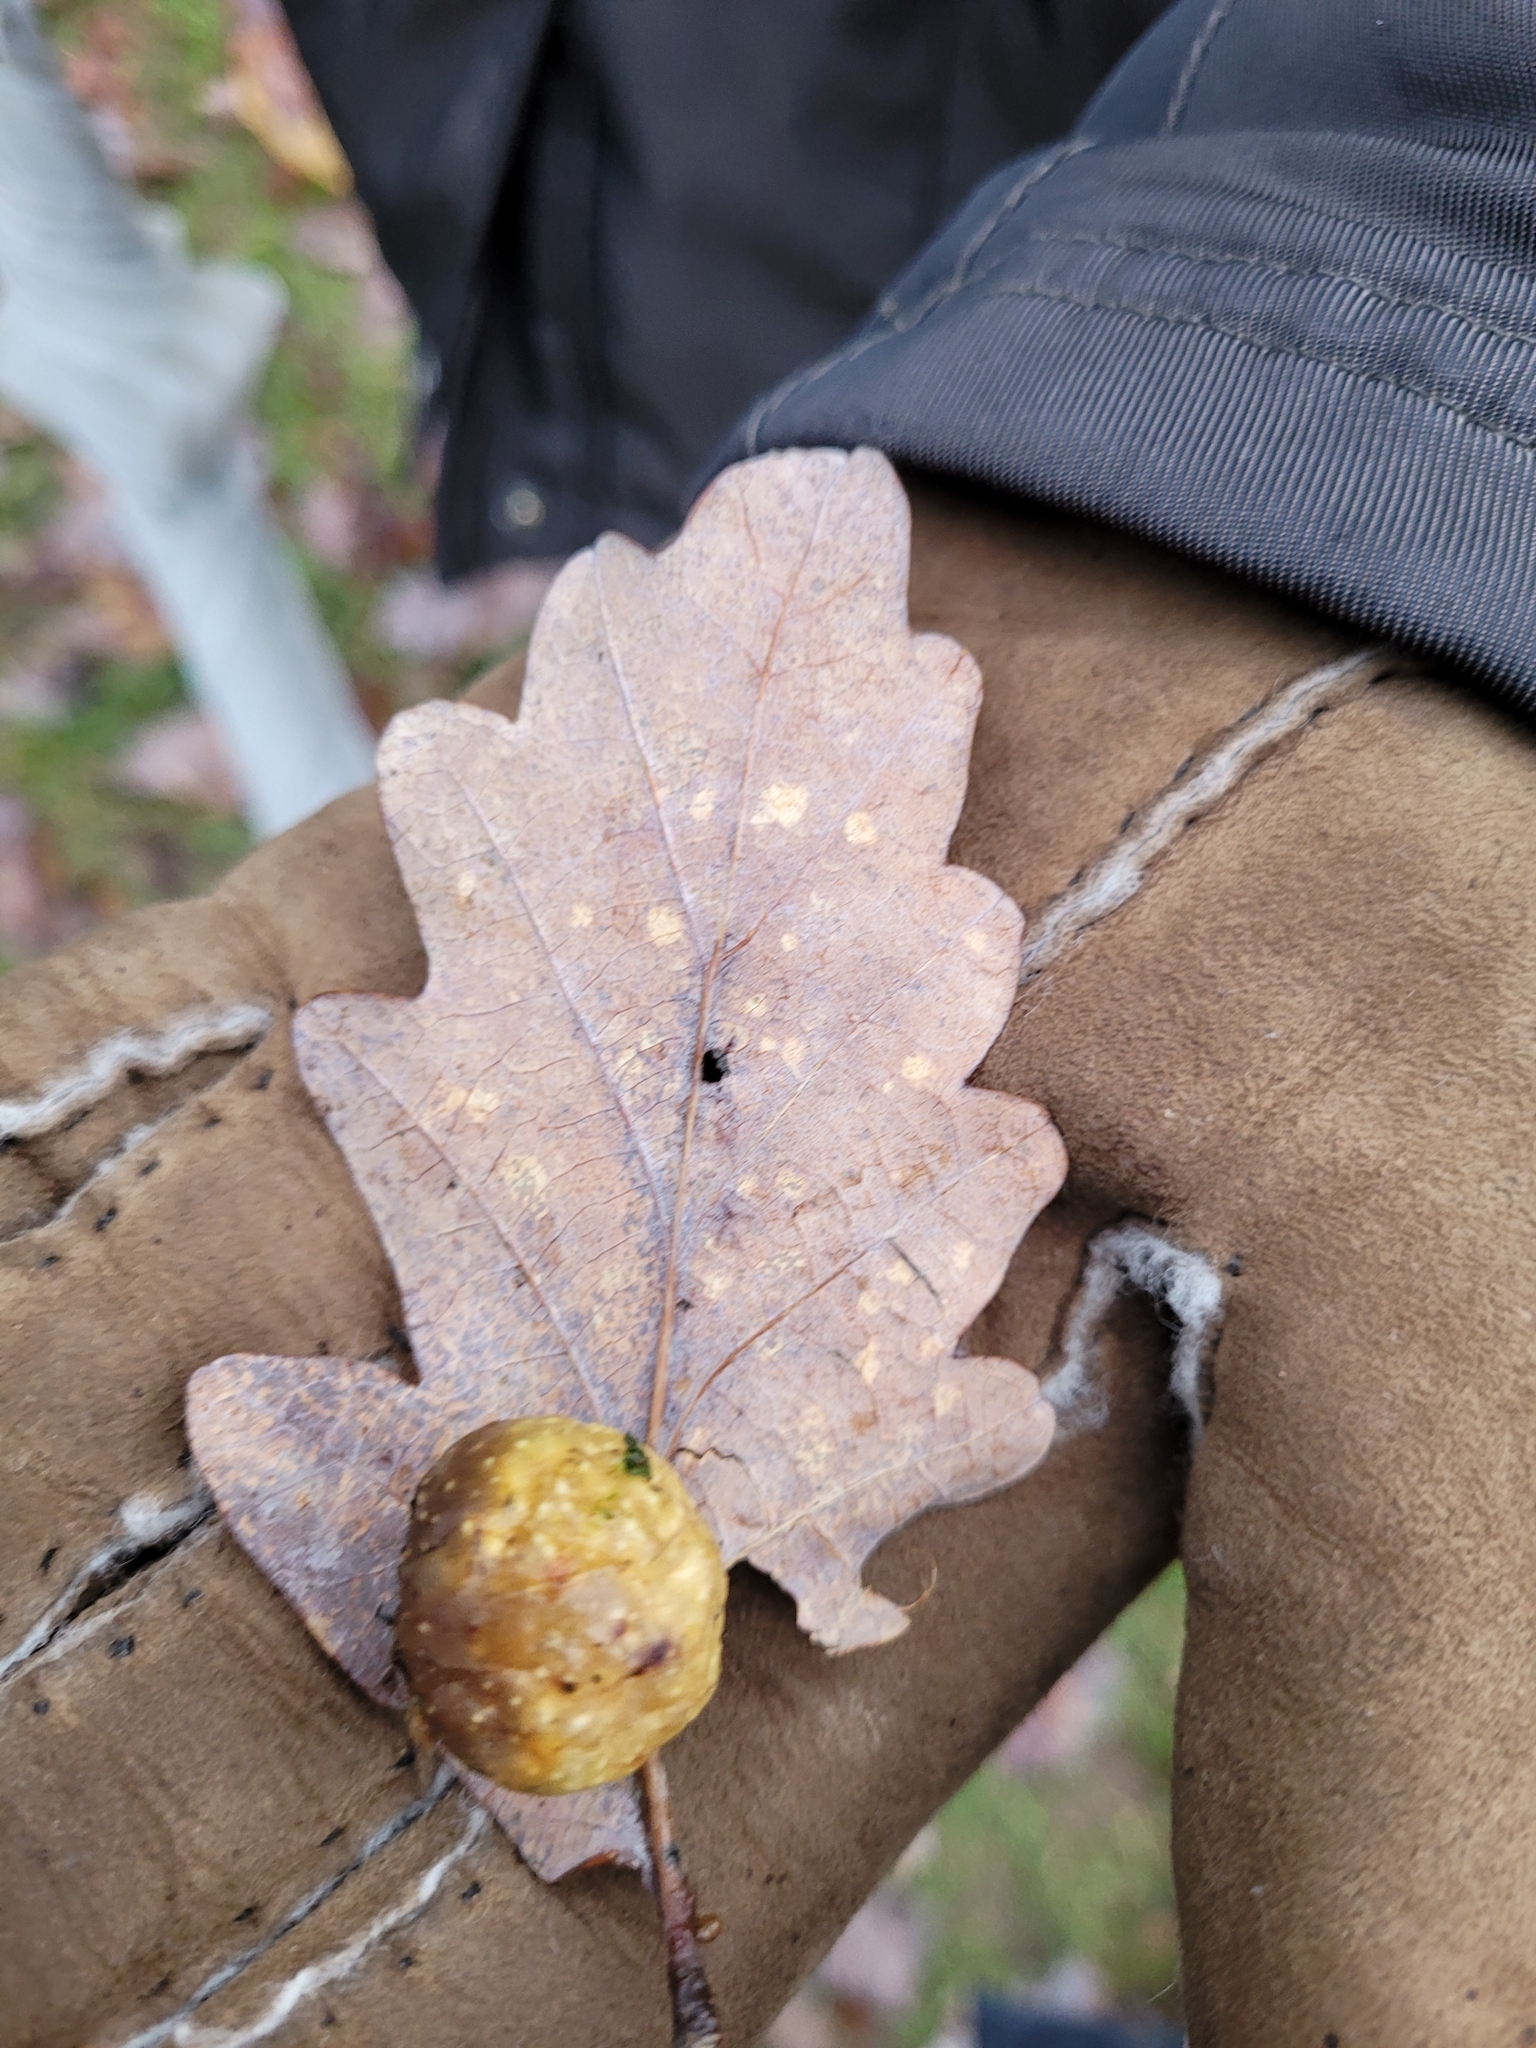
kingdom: Animalia
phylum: Arthropoda
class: Insecta
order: Hymenoptera
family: Cynipidae
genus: Cynips
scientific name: Cynips quercusfolii
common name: Cherry gall
